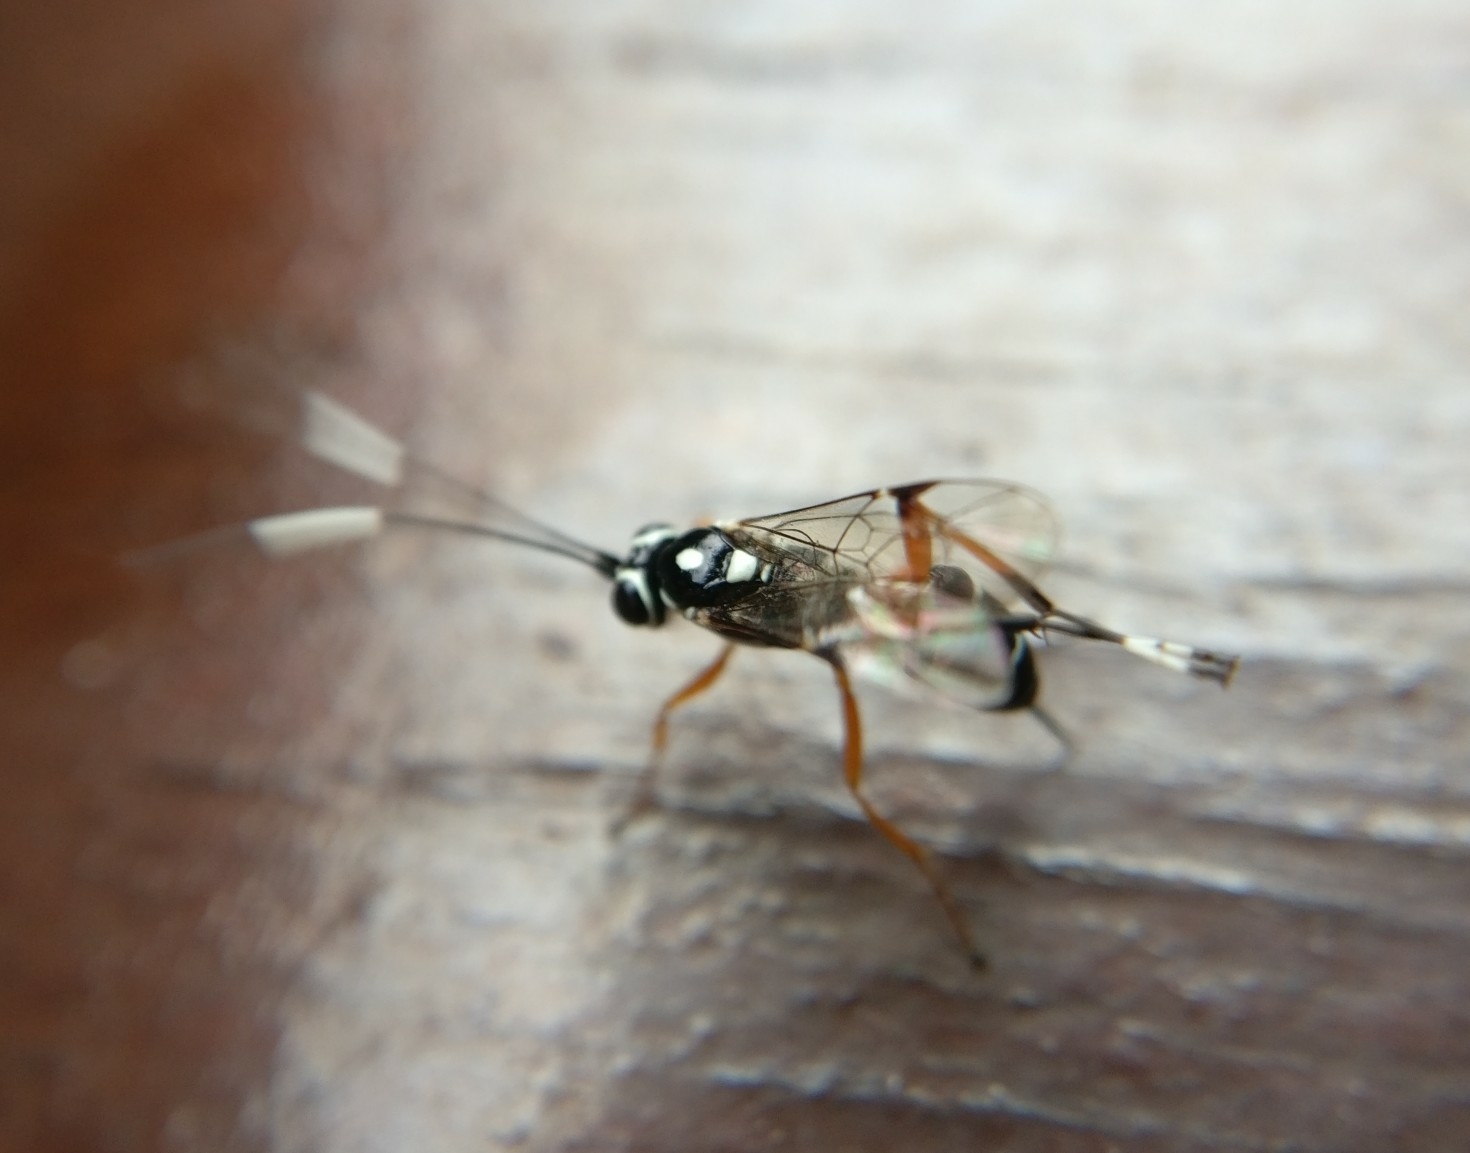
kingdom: Animalia
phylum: Arthropoda
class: Insecta
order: Hymenoptera
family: Ichneumonidae
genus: Glabridorsum
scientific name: Glabridorsum stokesii
